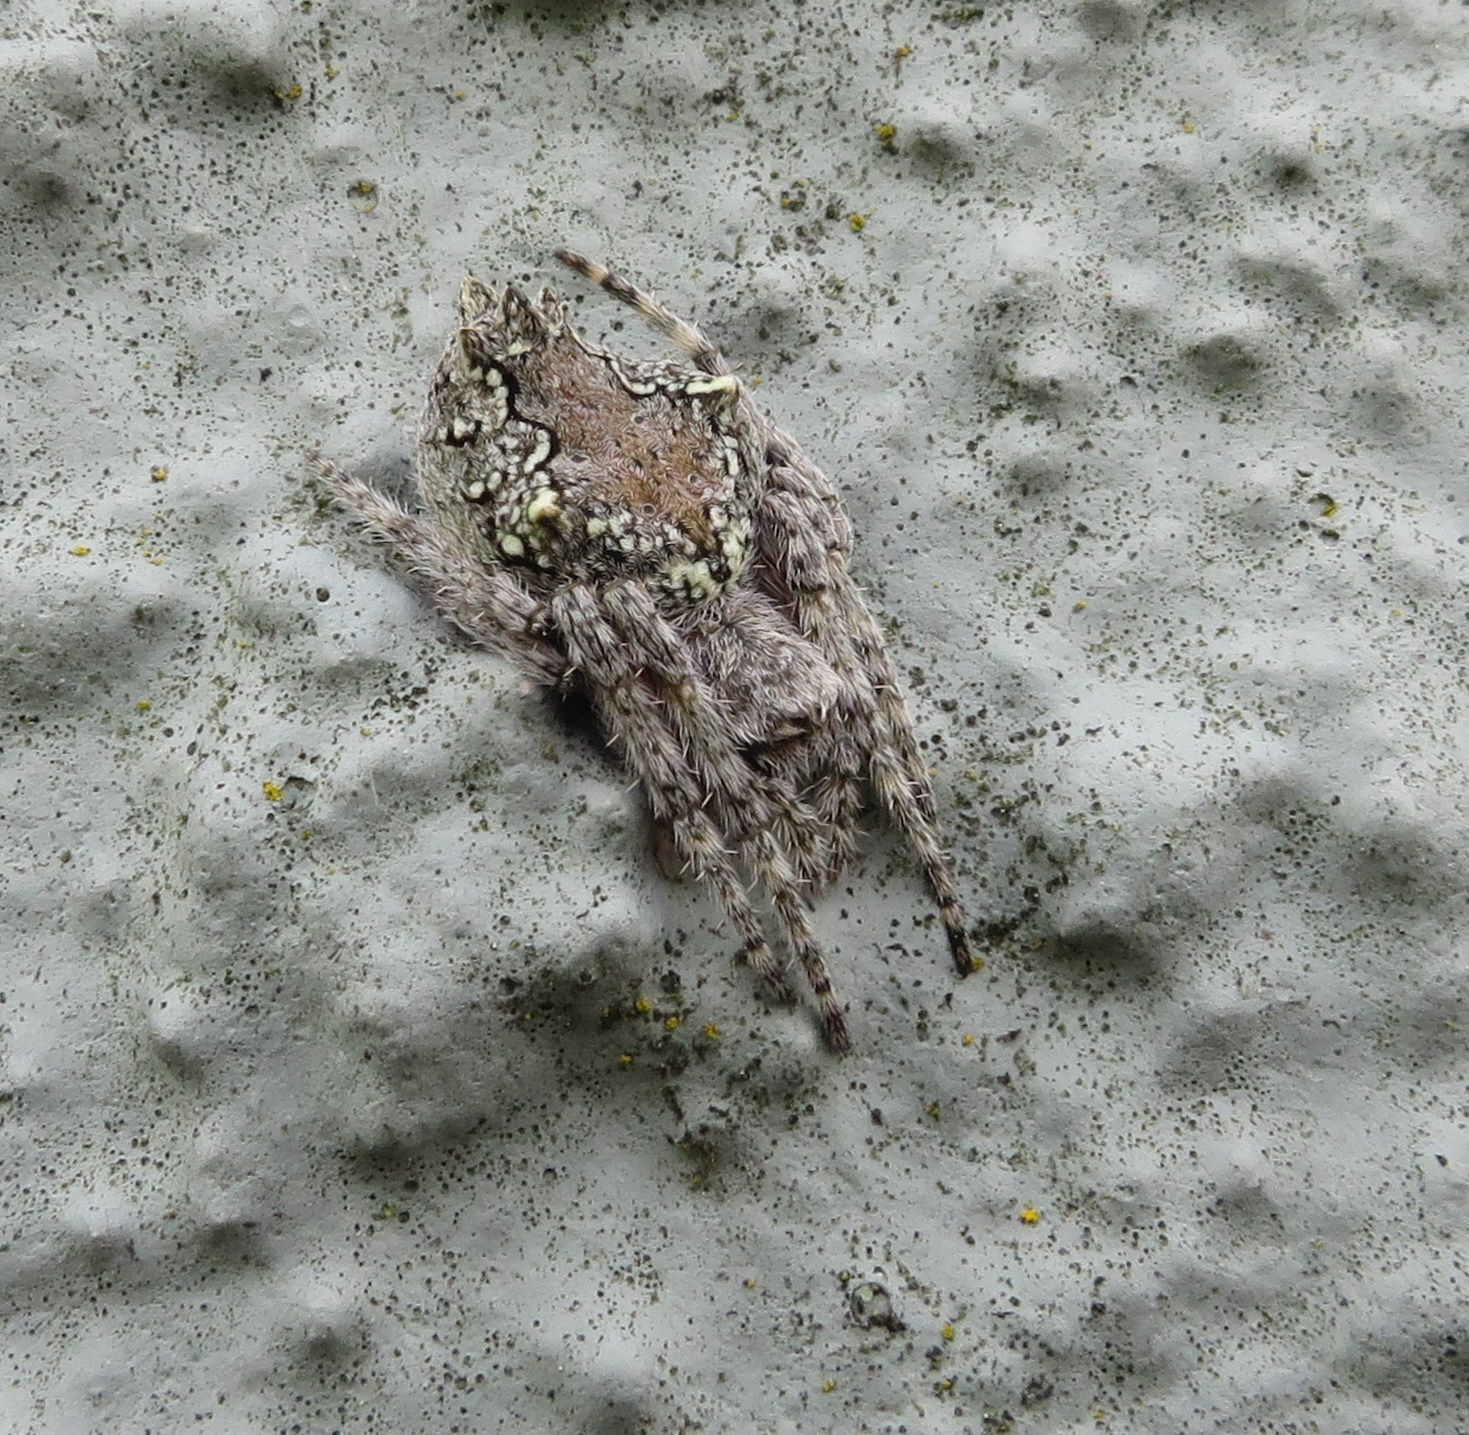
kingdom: Animalia
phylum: Arthropoda
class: Arachnida
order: Araneae
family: Araneidae
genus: Eriophora
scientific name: Eriophora pustulosa
